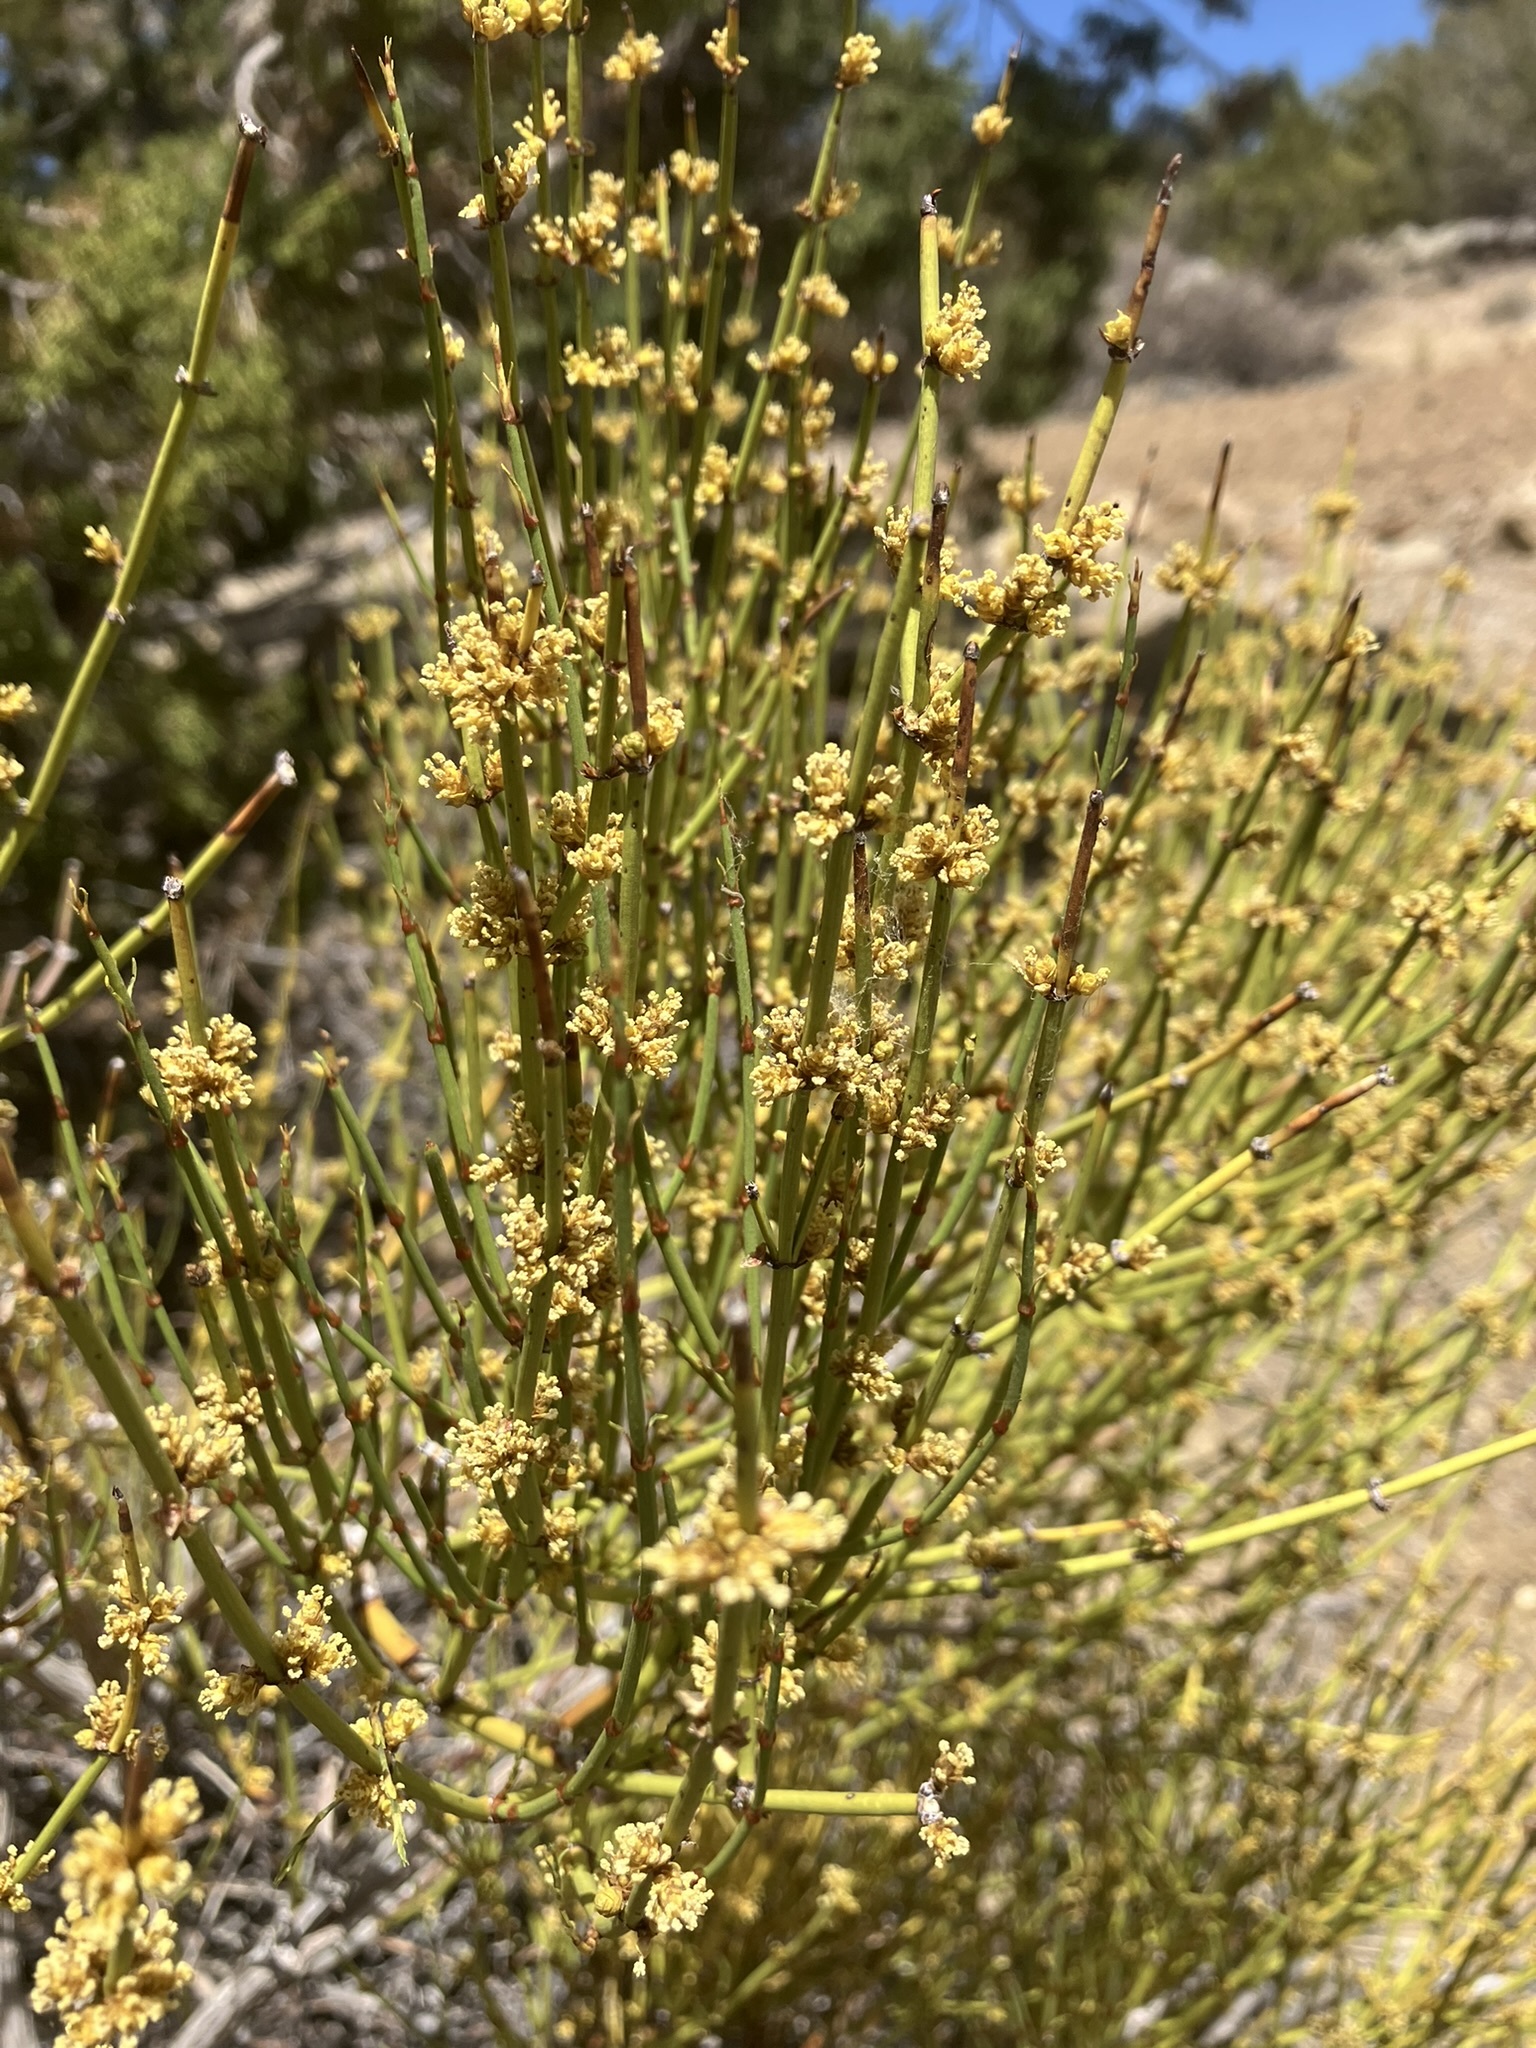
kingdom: Plantae
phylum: Tracheophyta
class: Gnetopsida
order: Ephedrales
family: Ephedraceae
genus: Ephedra
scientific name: Ephedra viridis
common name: Green ephedra
